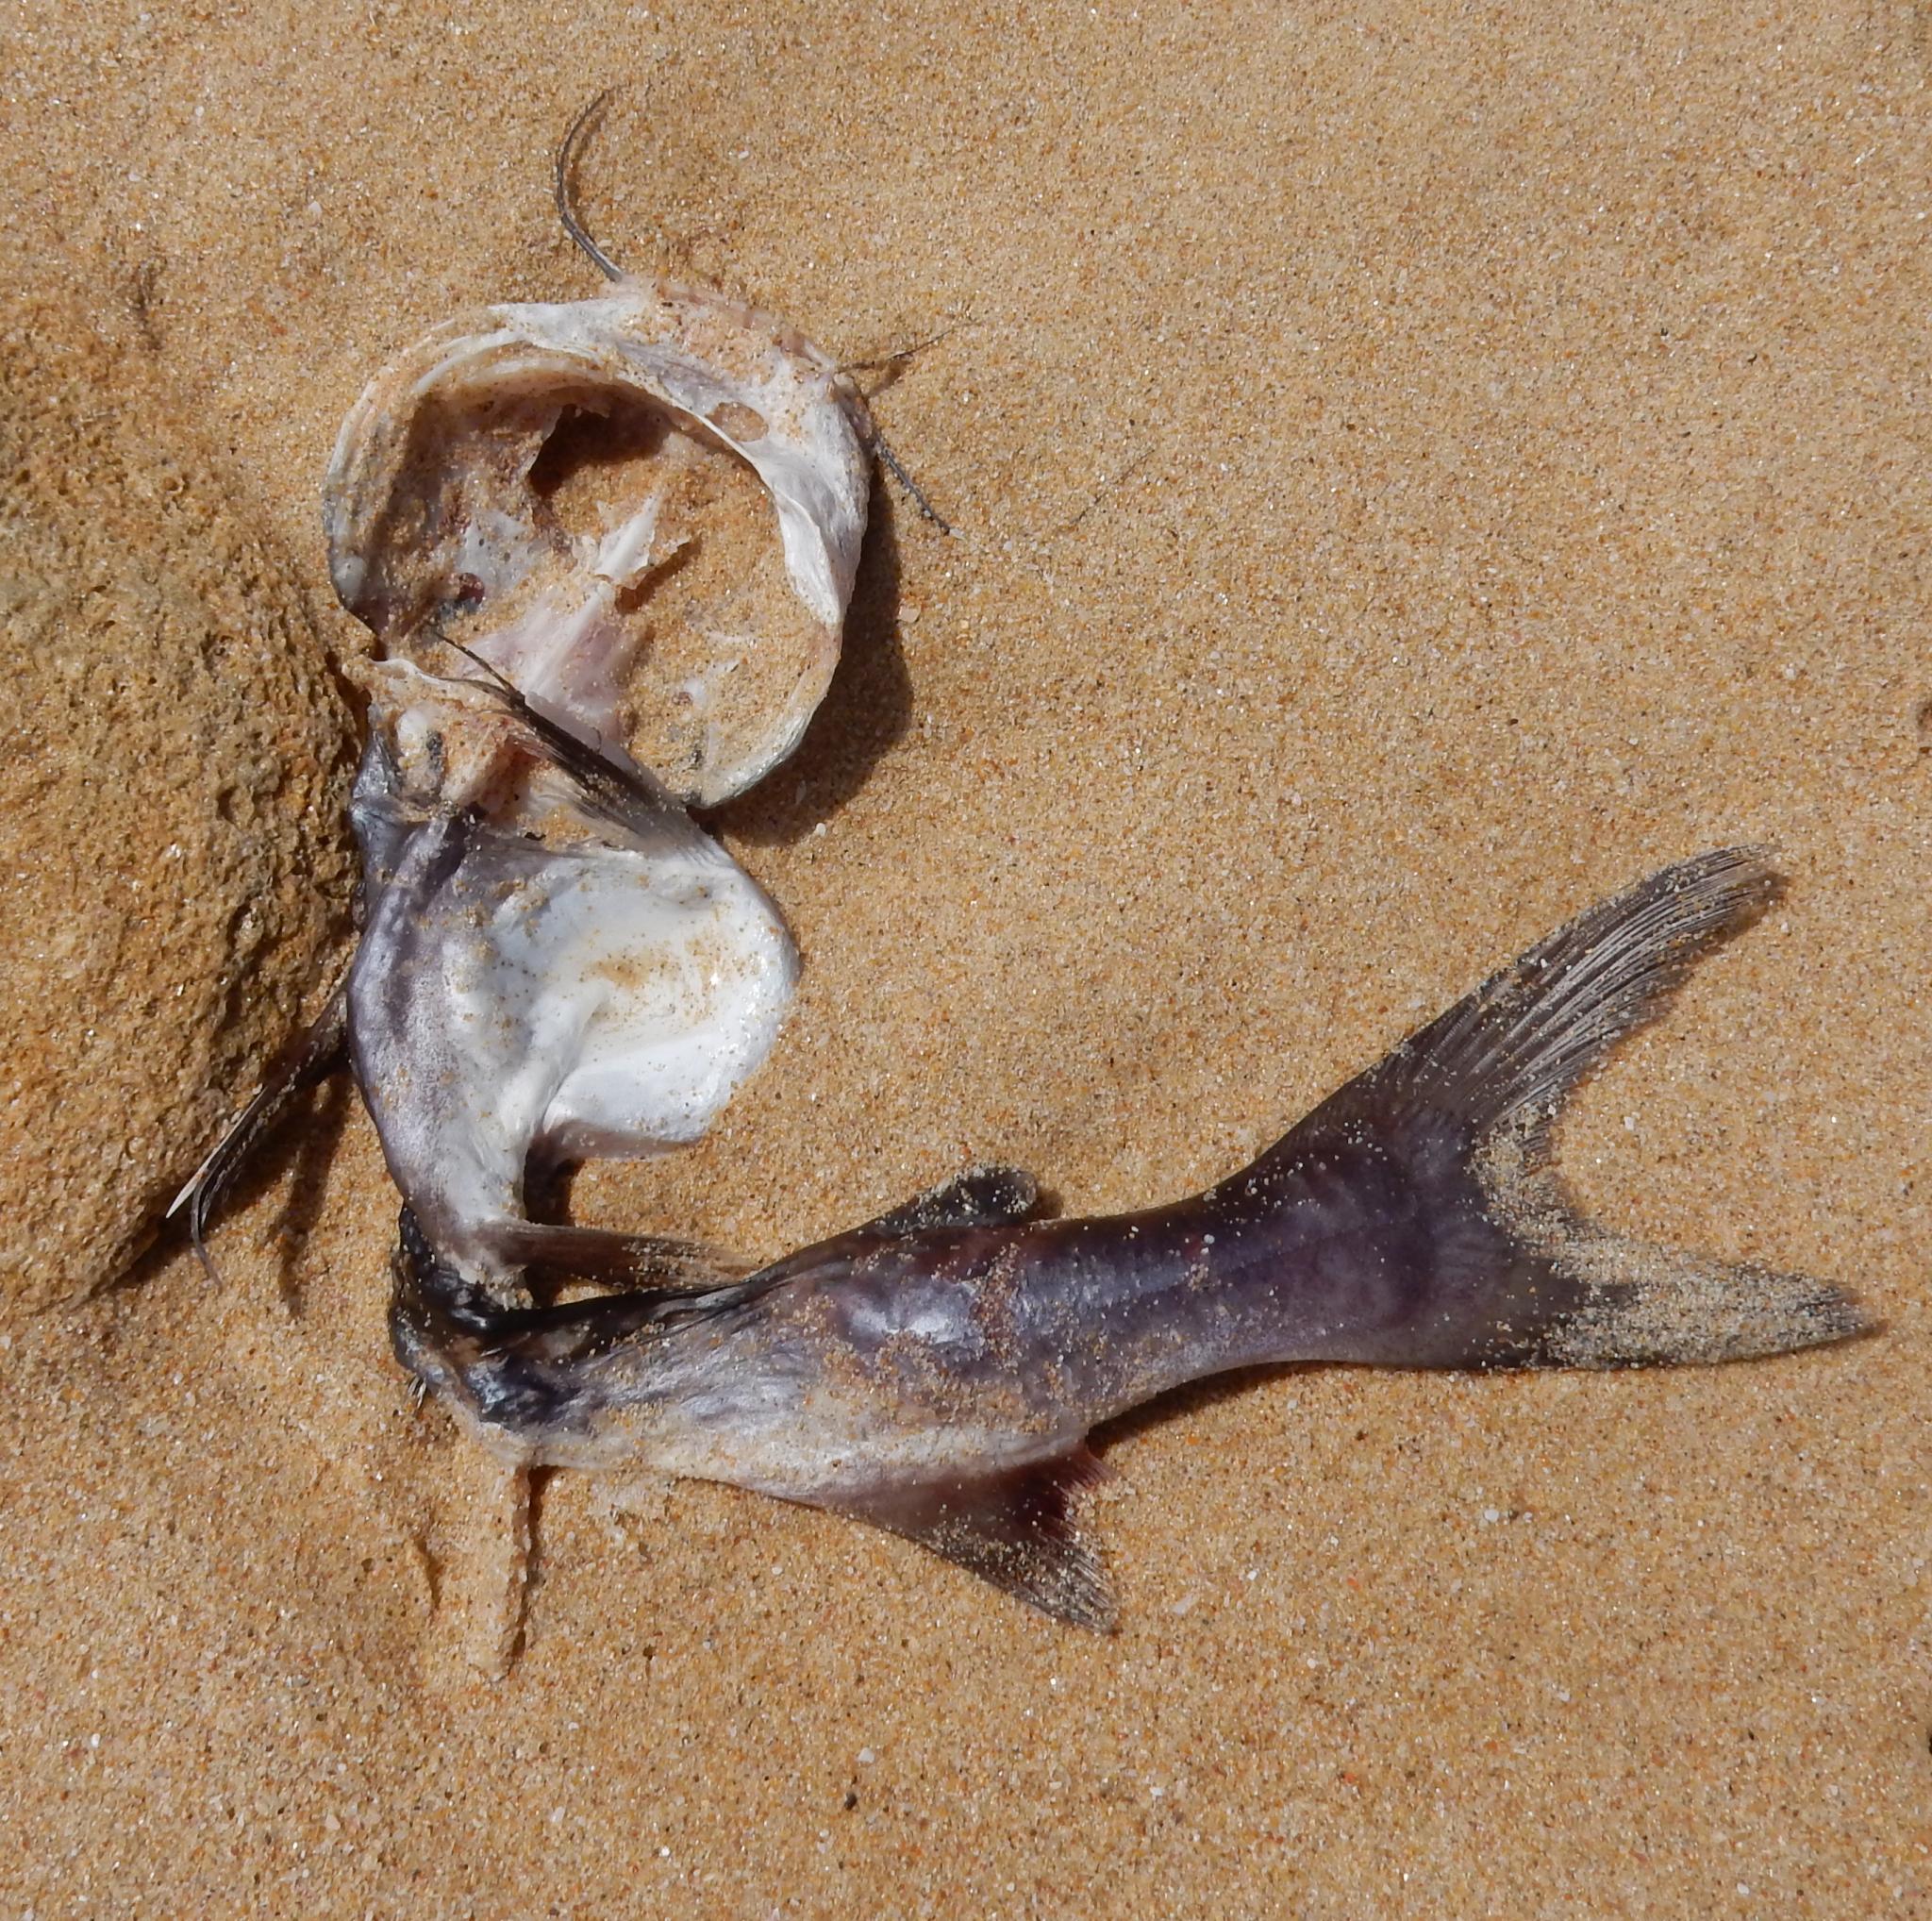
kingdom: Animalia
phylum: Chordata
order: Siluriformes
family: Ariidae
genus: Galeichthys
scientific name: Galeichthys feliceps
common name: White seacatfish
